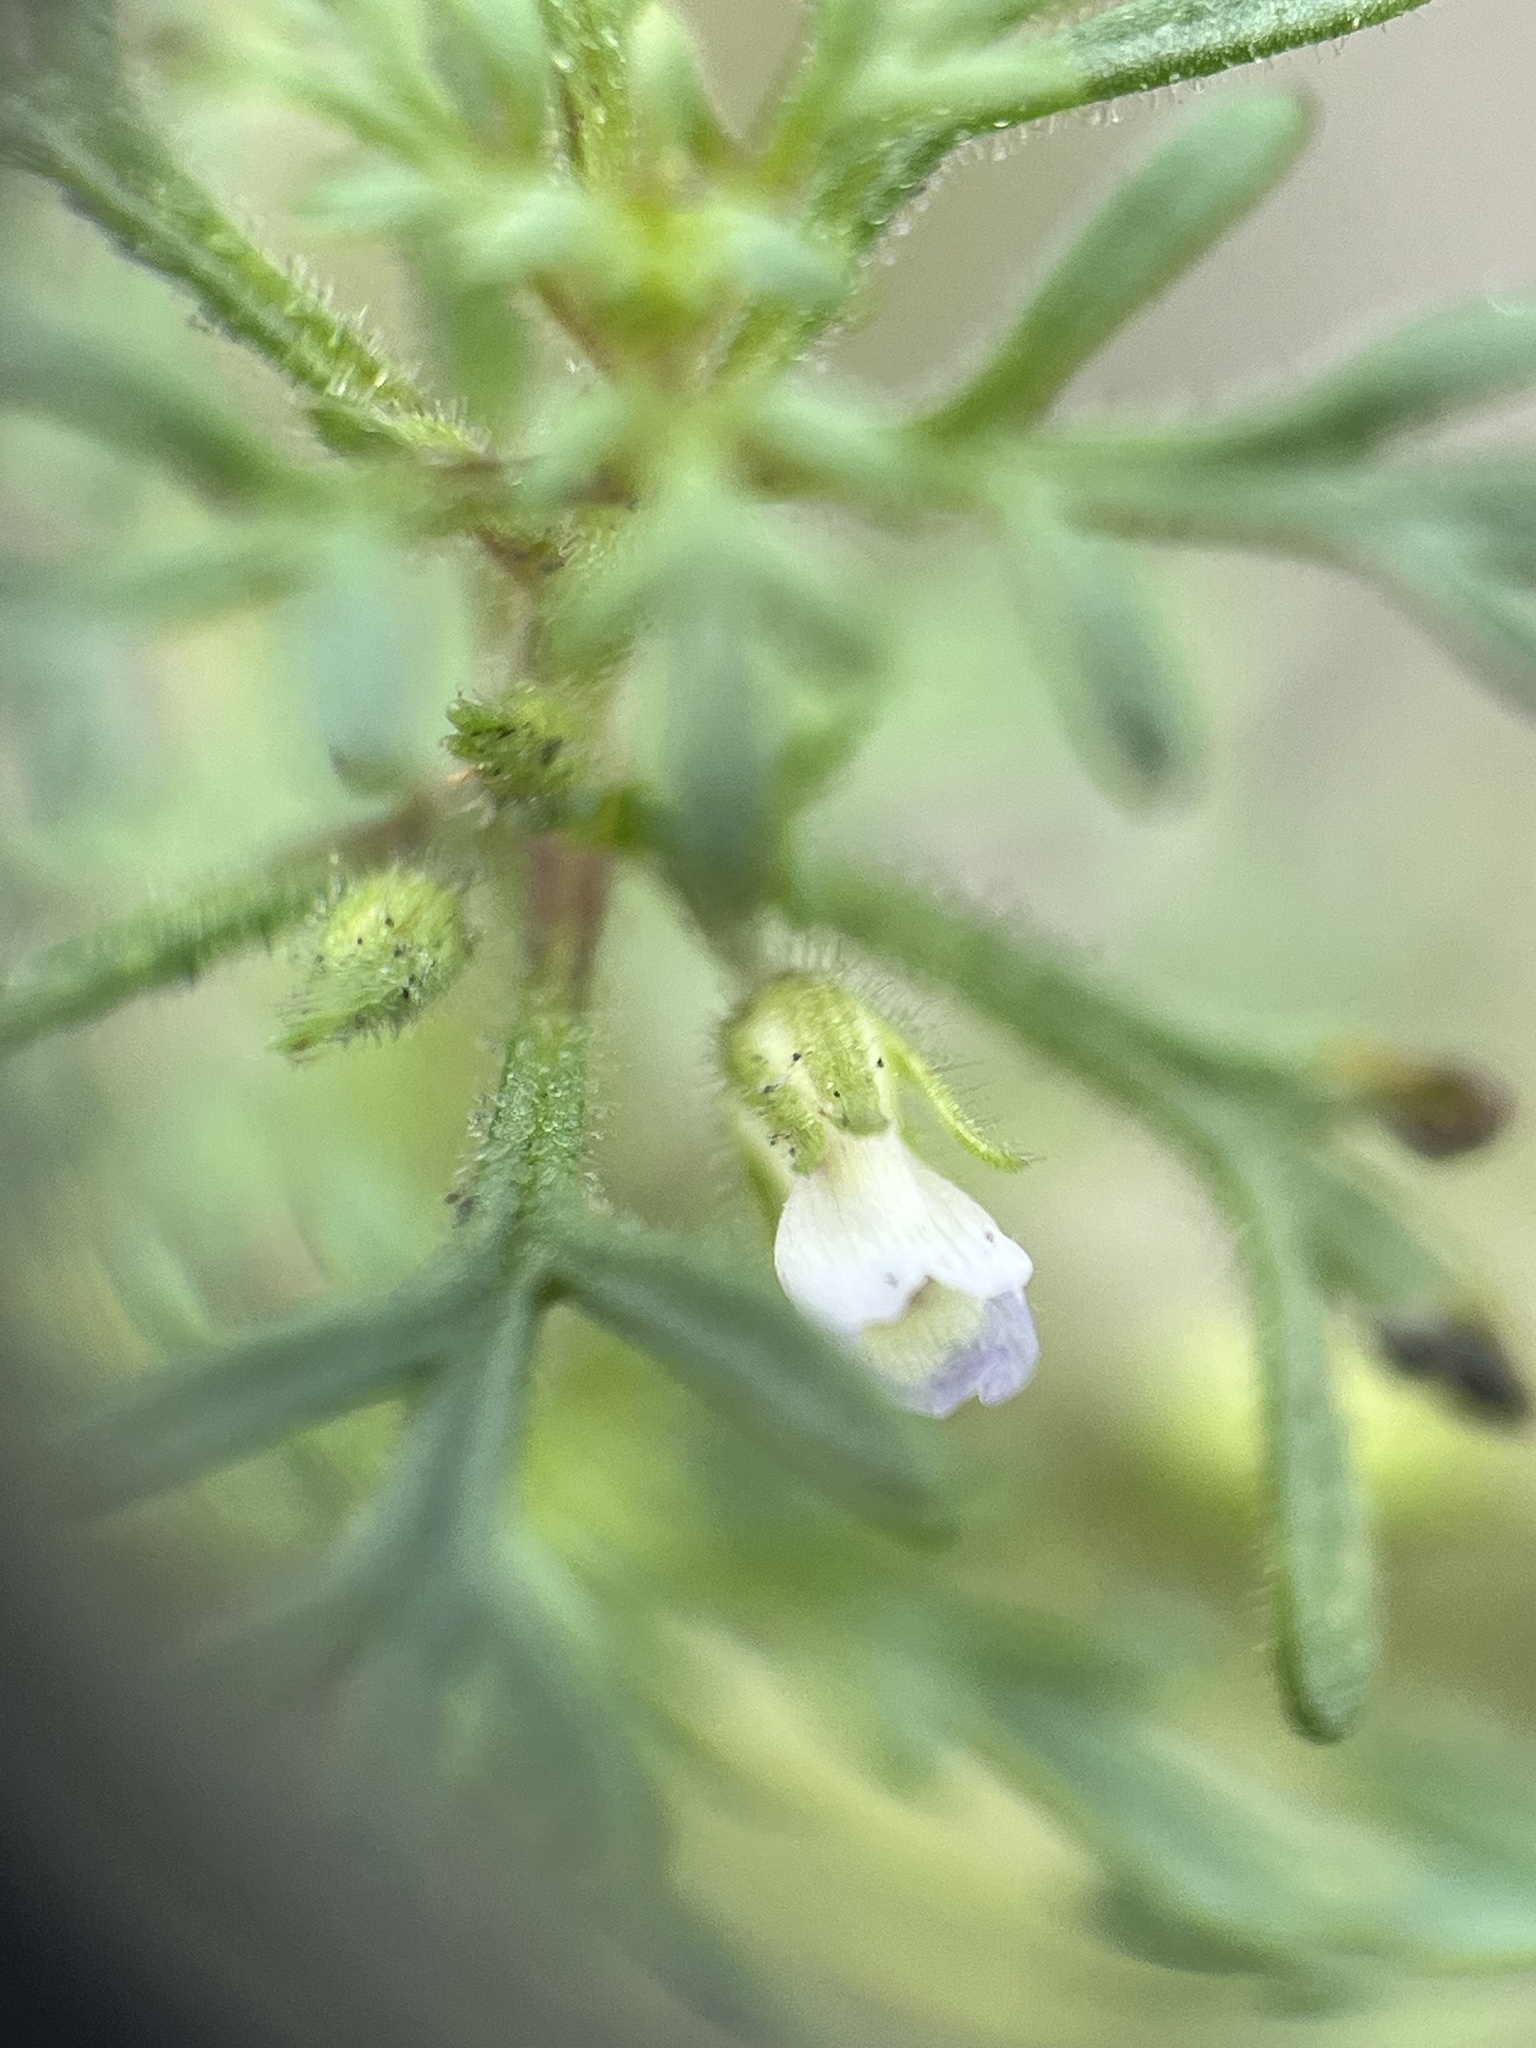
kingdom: Plantae
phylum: Tracheophyta
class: Magnoliopsida
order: Lamiales
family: Plantaginaceae
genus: Leucospora
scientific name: Leucospora multifida
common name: Narrow-leaf paleseed
